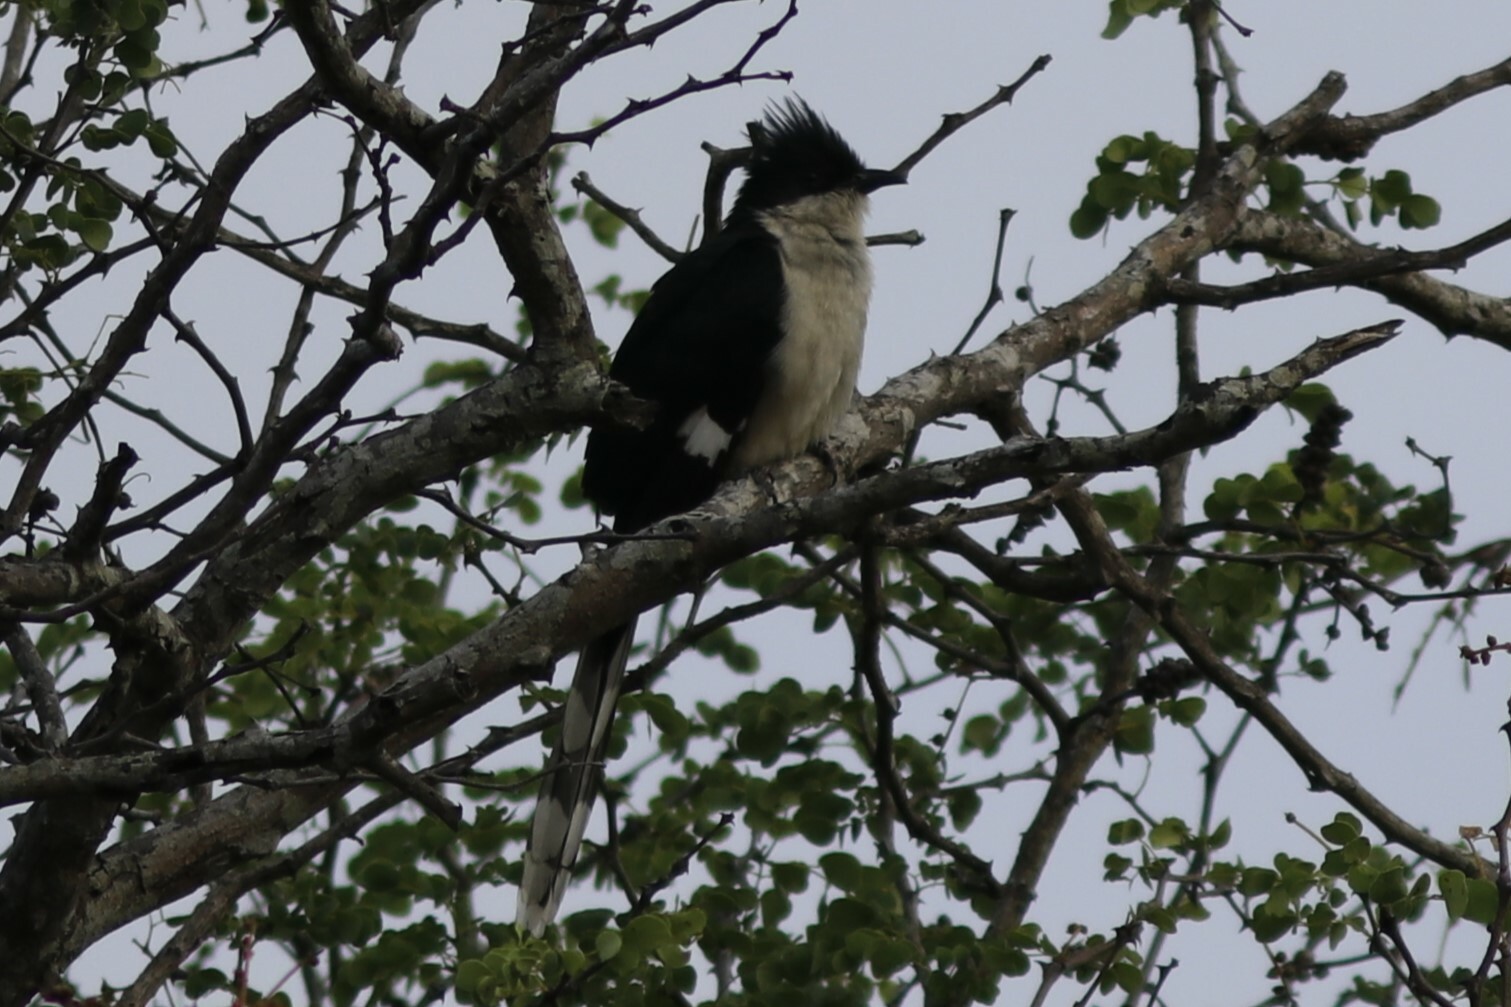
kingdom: Animalia
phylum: Chordata
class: Aves
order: Cuculiformes
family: Cuculidae
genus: Clamator
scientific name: Clamator jacobinus
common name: Jacobin cuckoo
